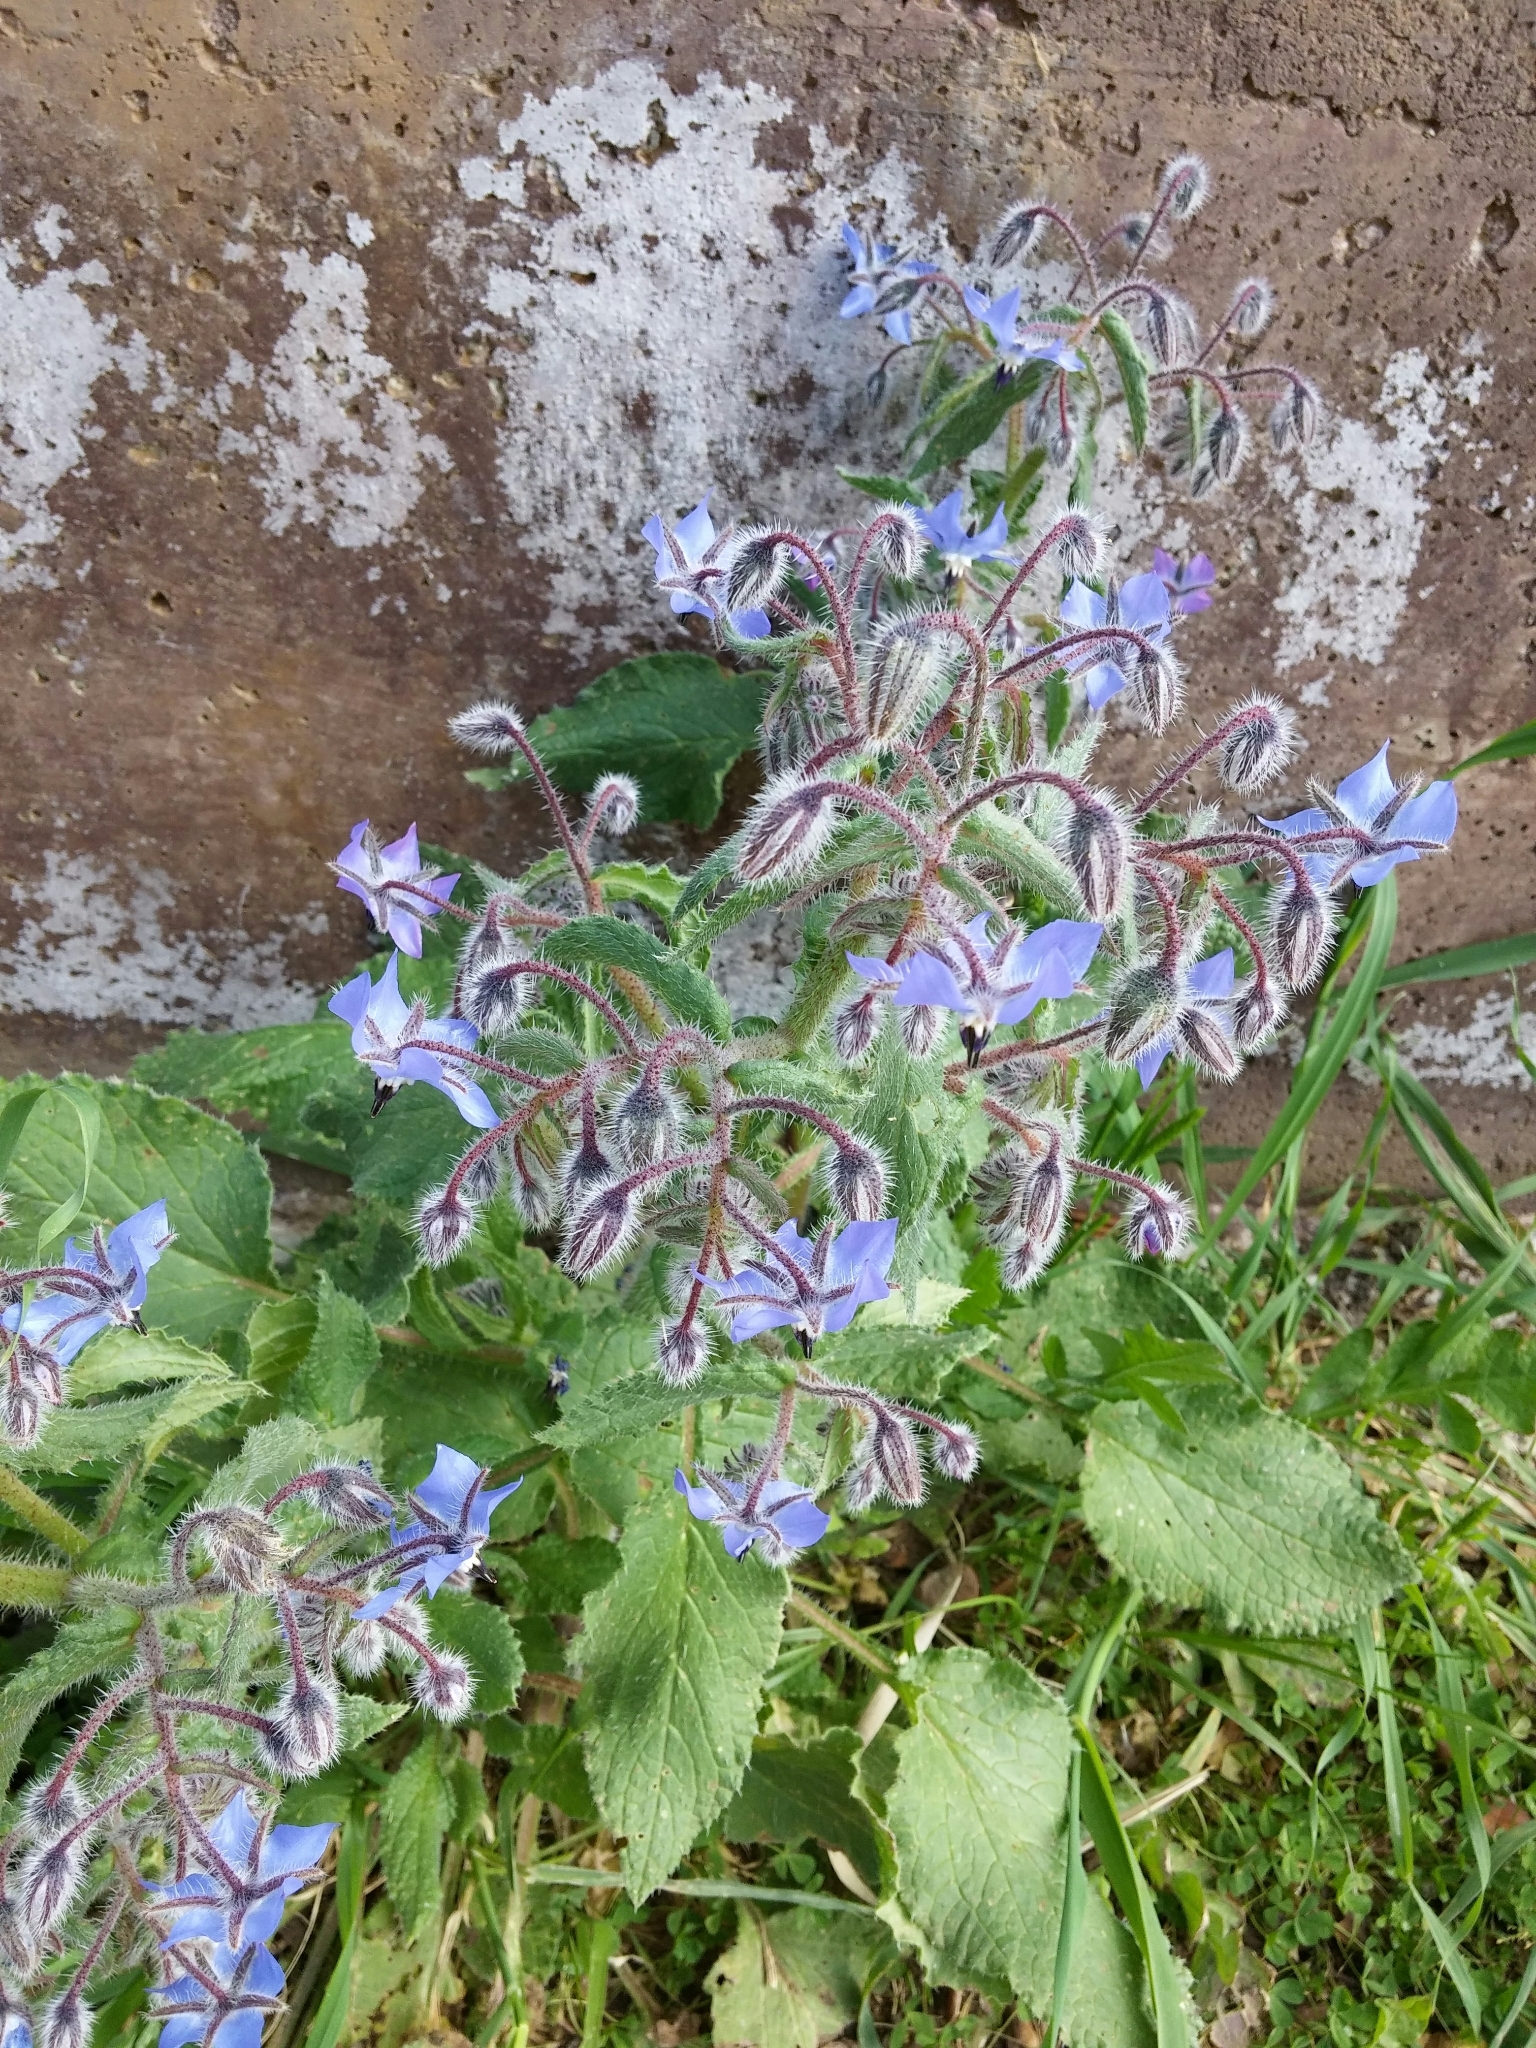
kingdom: Plantae
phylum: Tracheophyta
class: Magnoliopsida
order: Boraginales
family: Boraginaceae
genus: Borago
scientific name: Borago officinalis
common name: Borage
